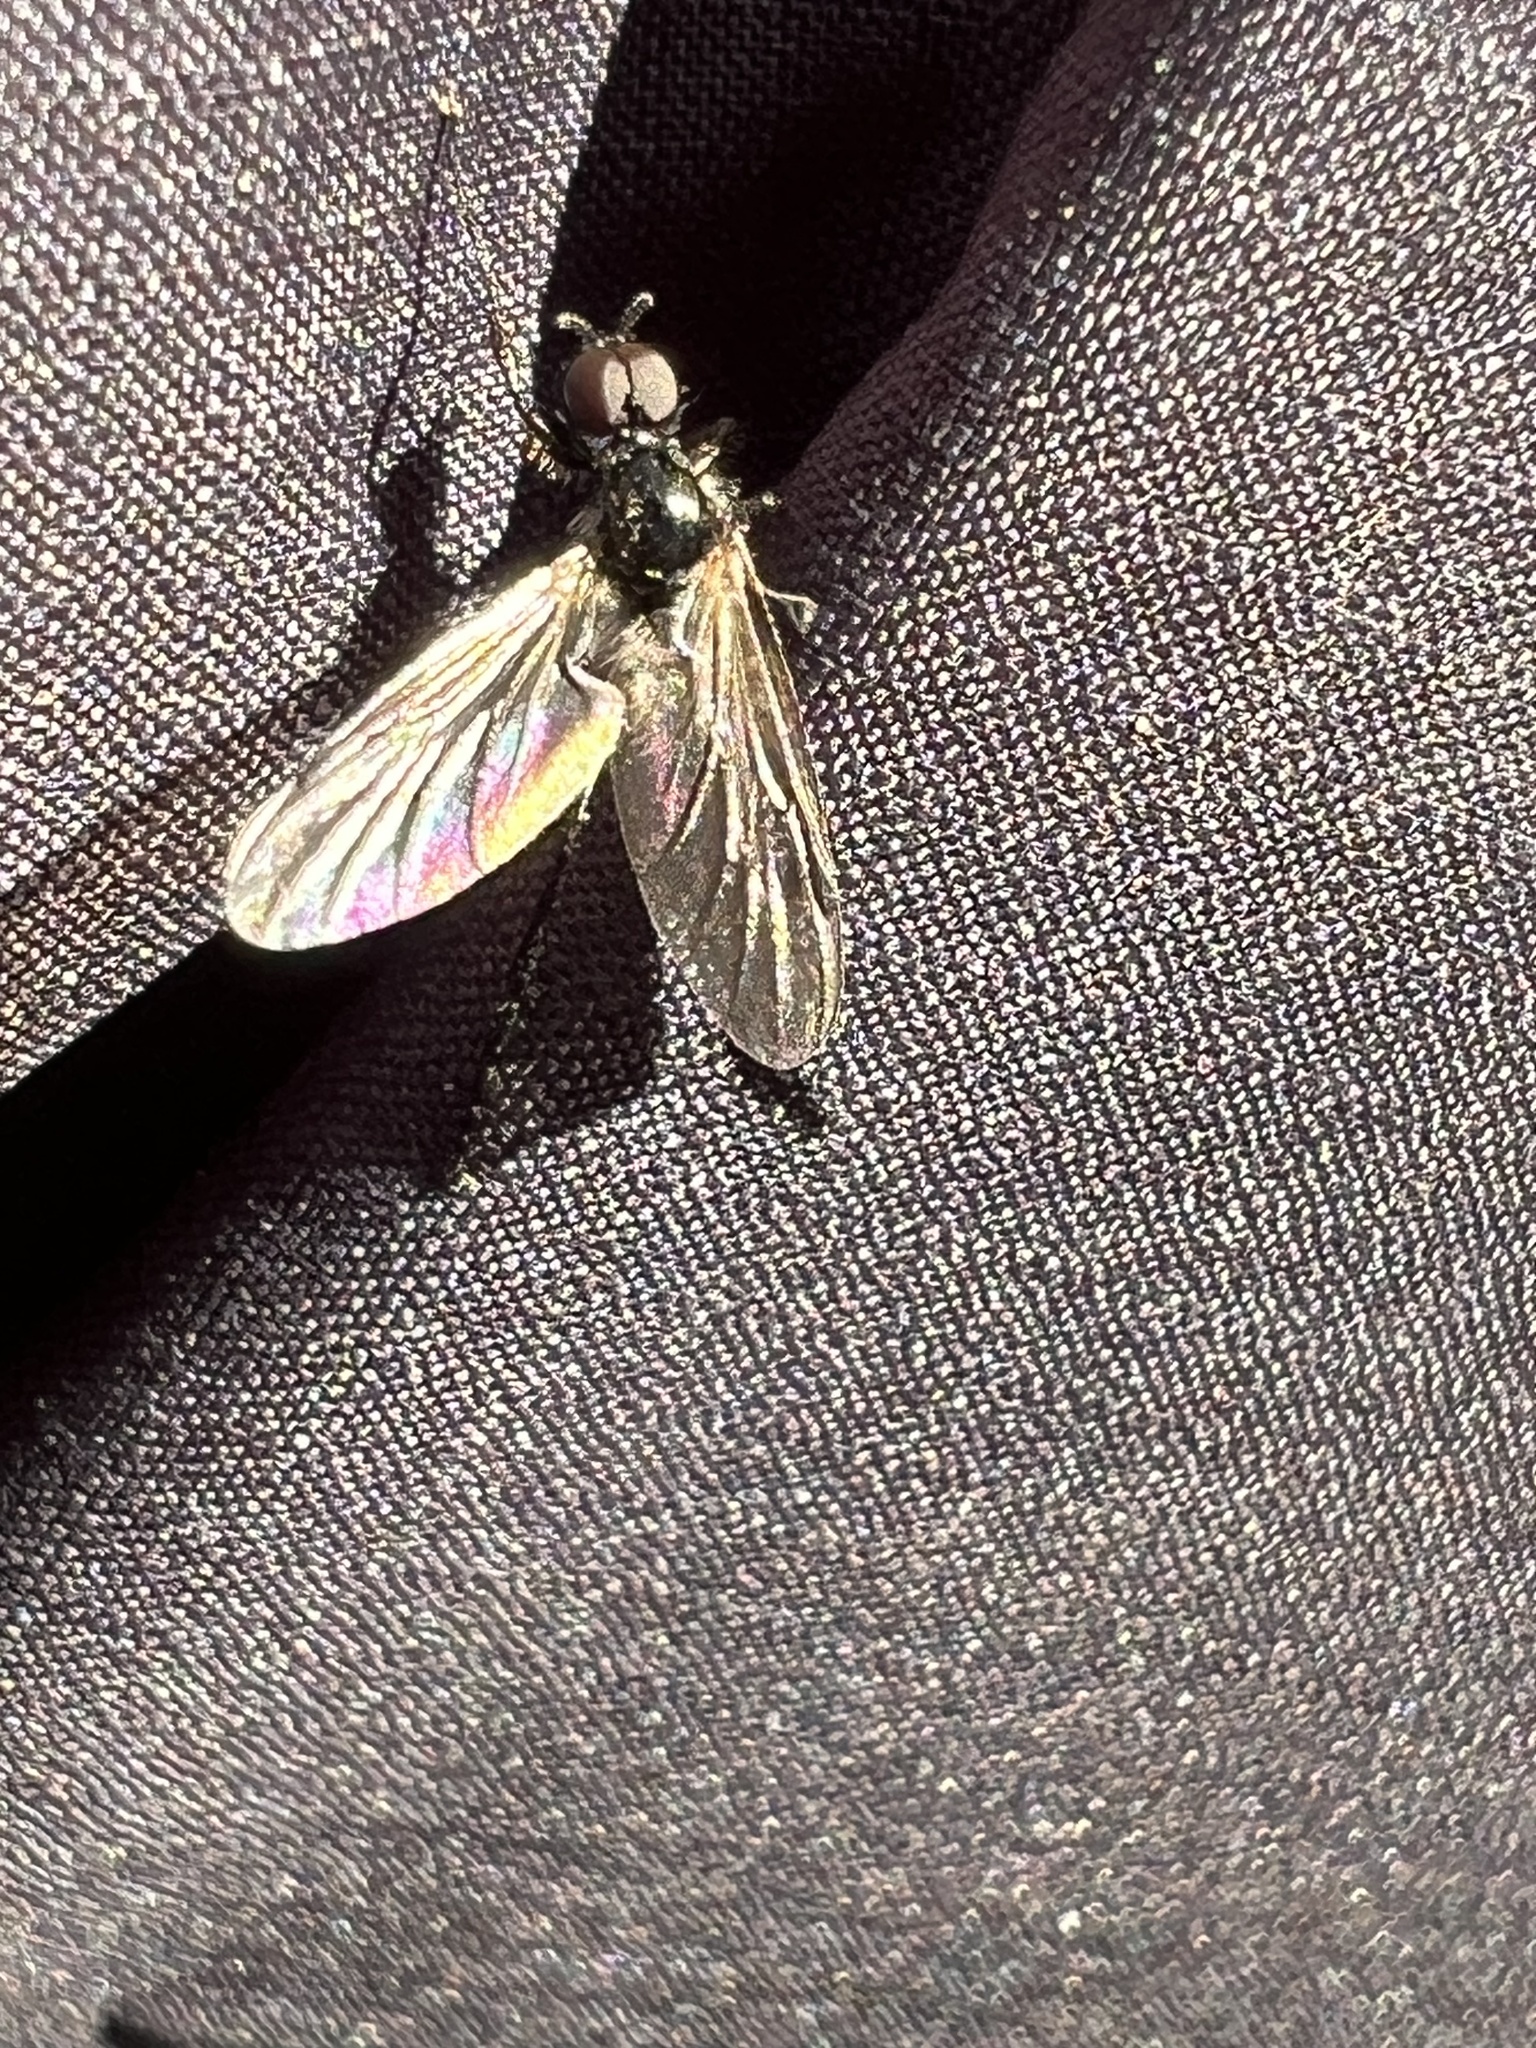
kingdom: Animalia
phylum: Arthropoda
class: Insecta
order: Diptera
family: Bibionidae
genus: Bibio
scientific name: Bibio longipes
